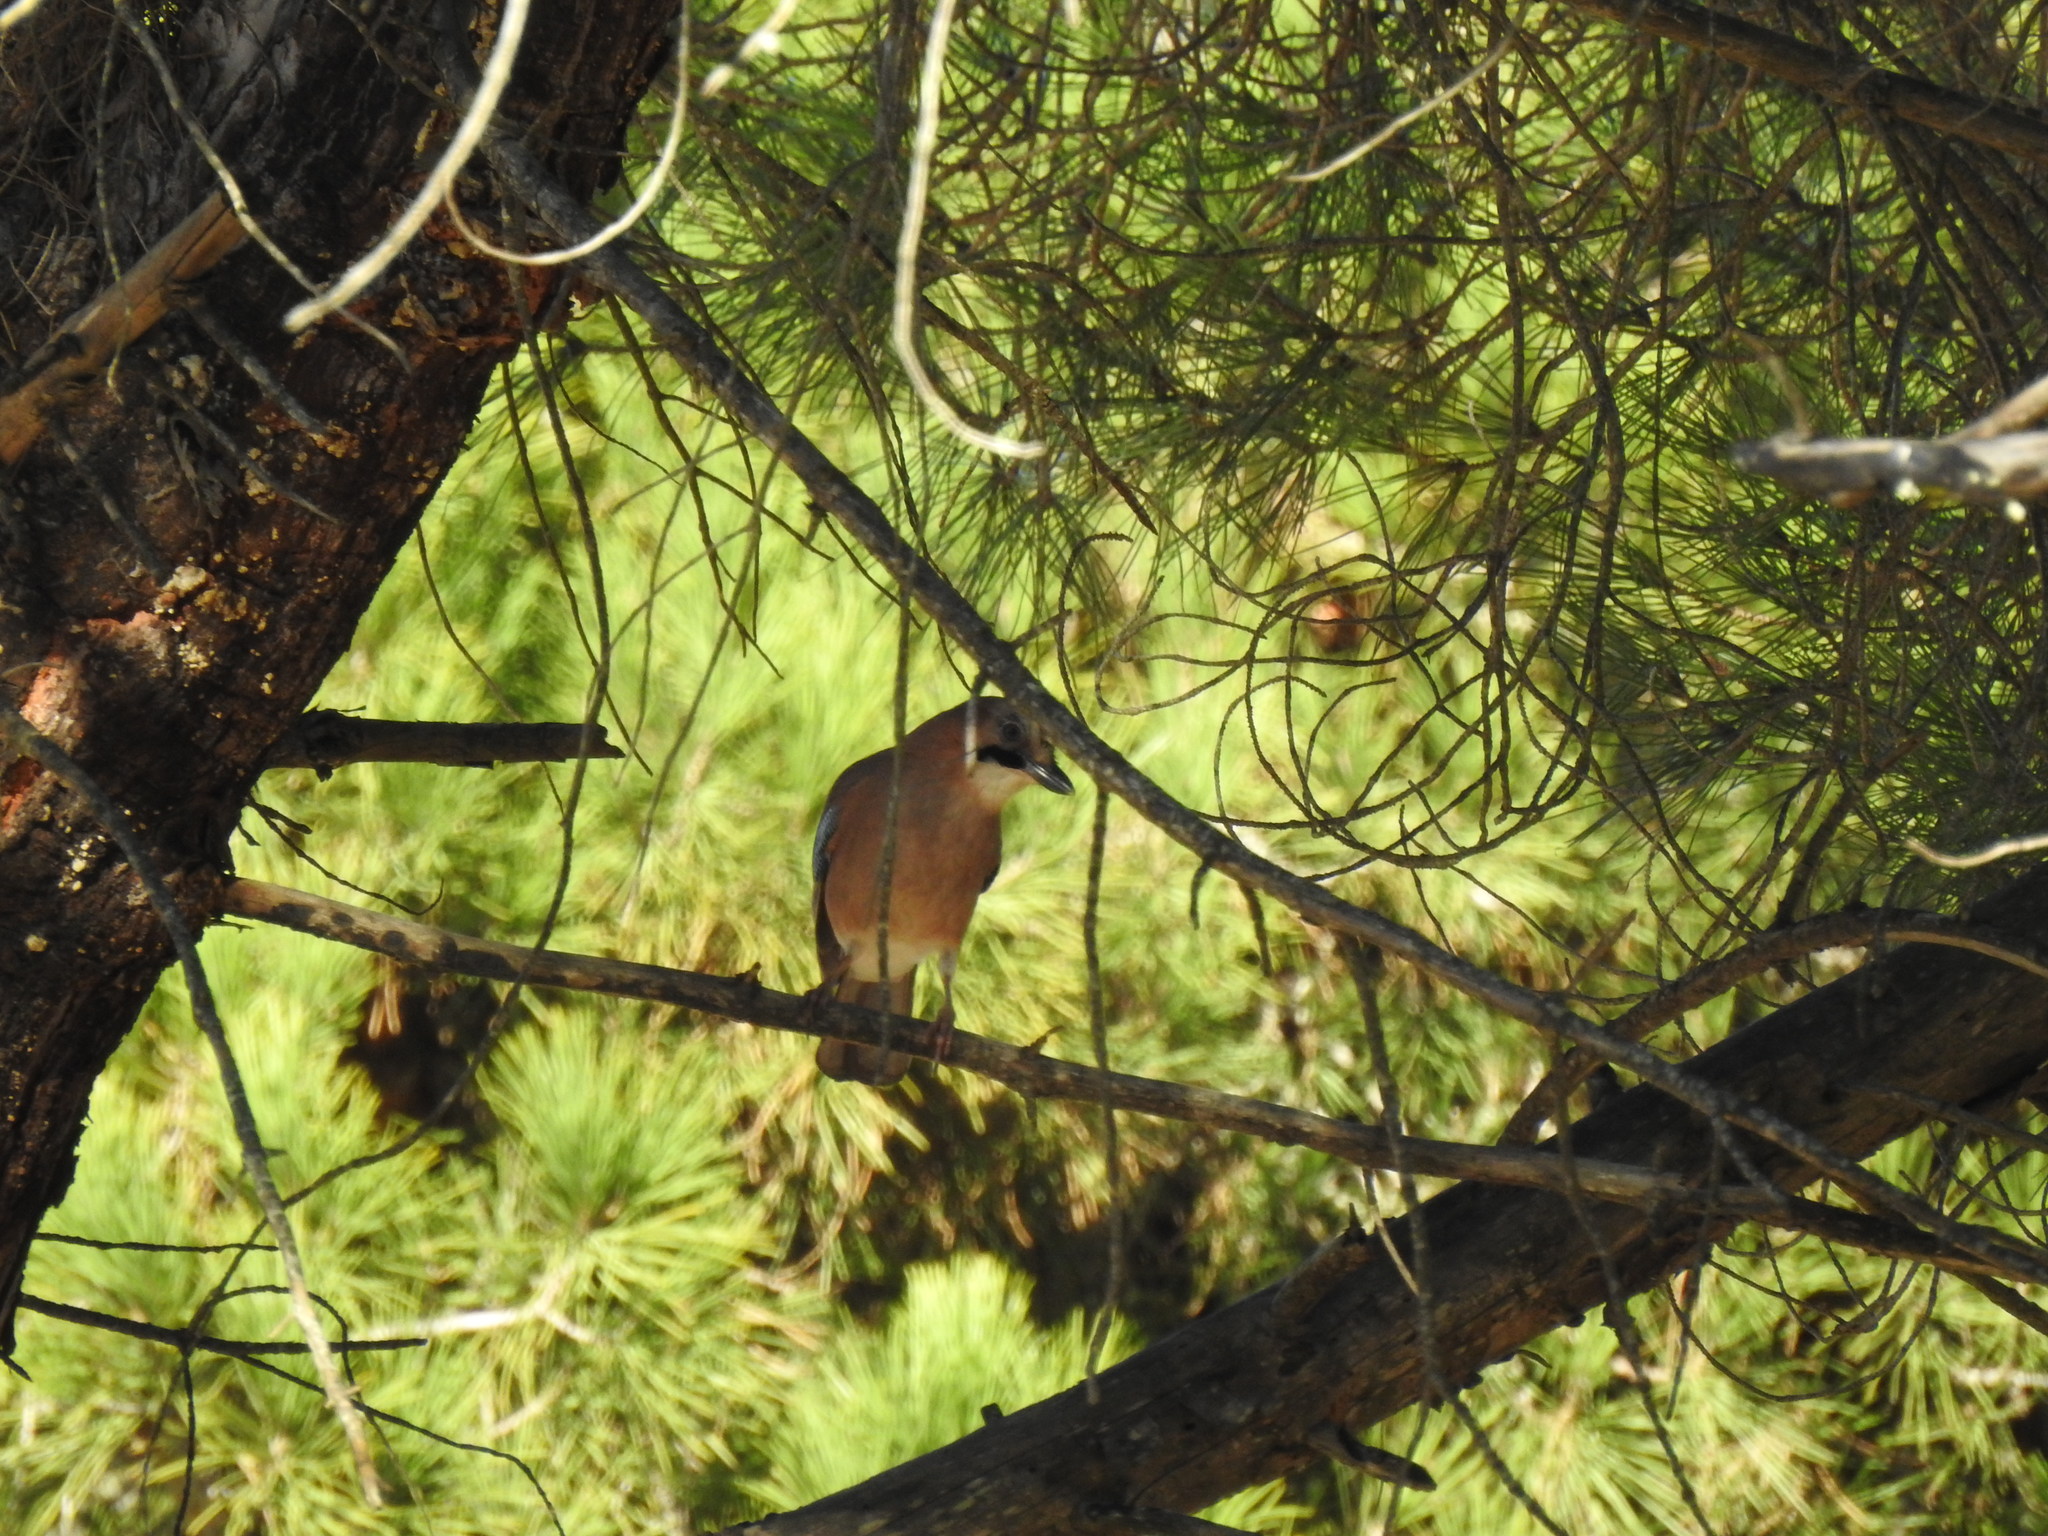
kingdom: Animalia
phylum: Chordata
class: Aves
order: Passeriformes
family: Corvidae
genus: Garrulus
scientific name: Garrulus glandarius
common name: Eurasian jay
